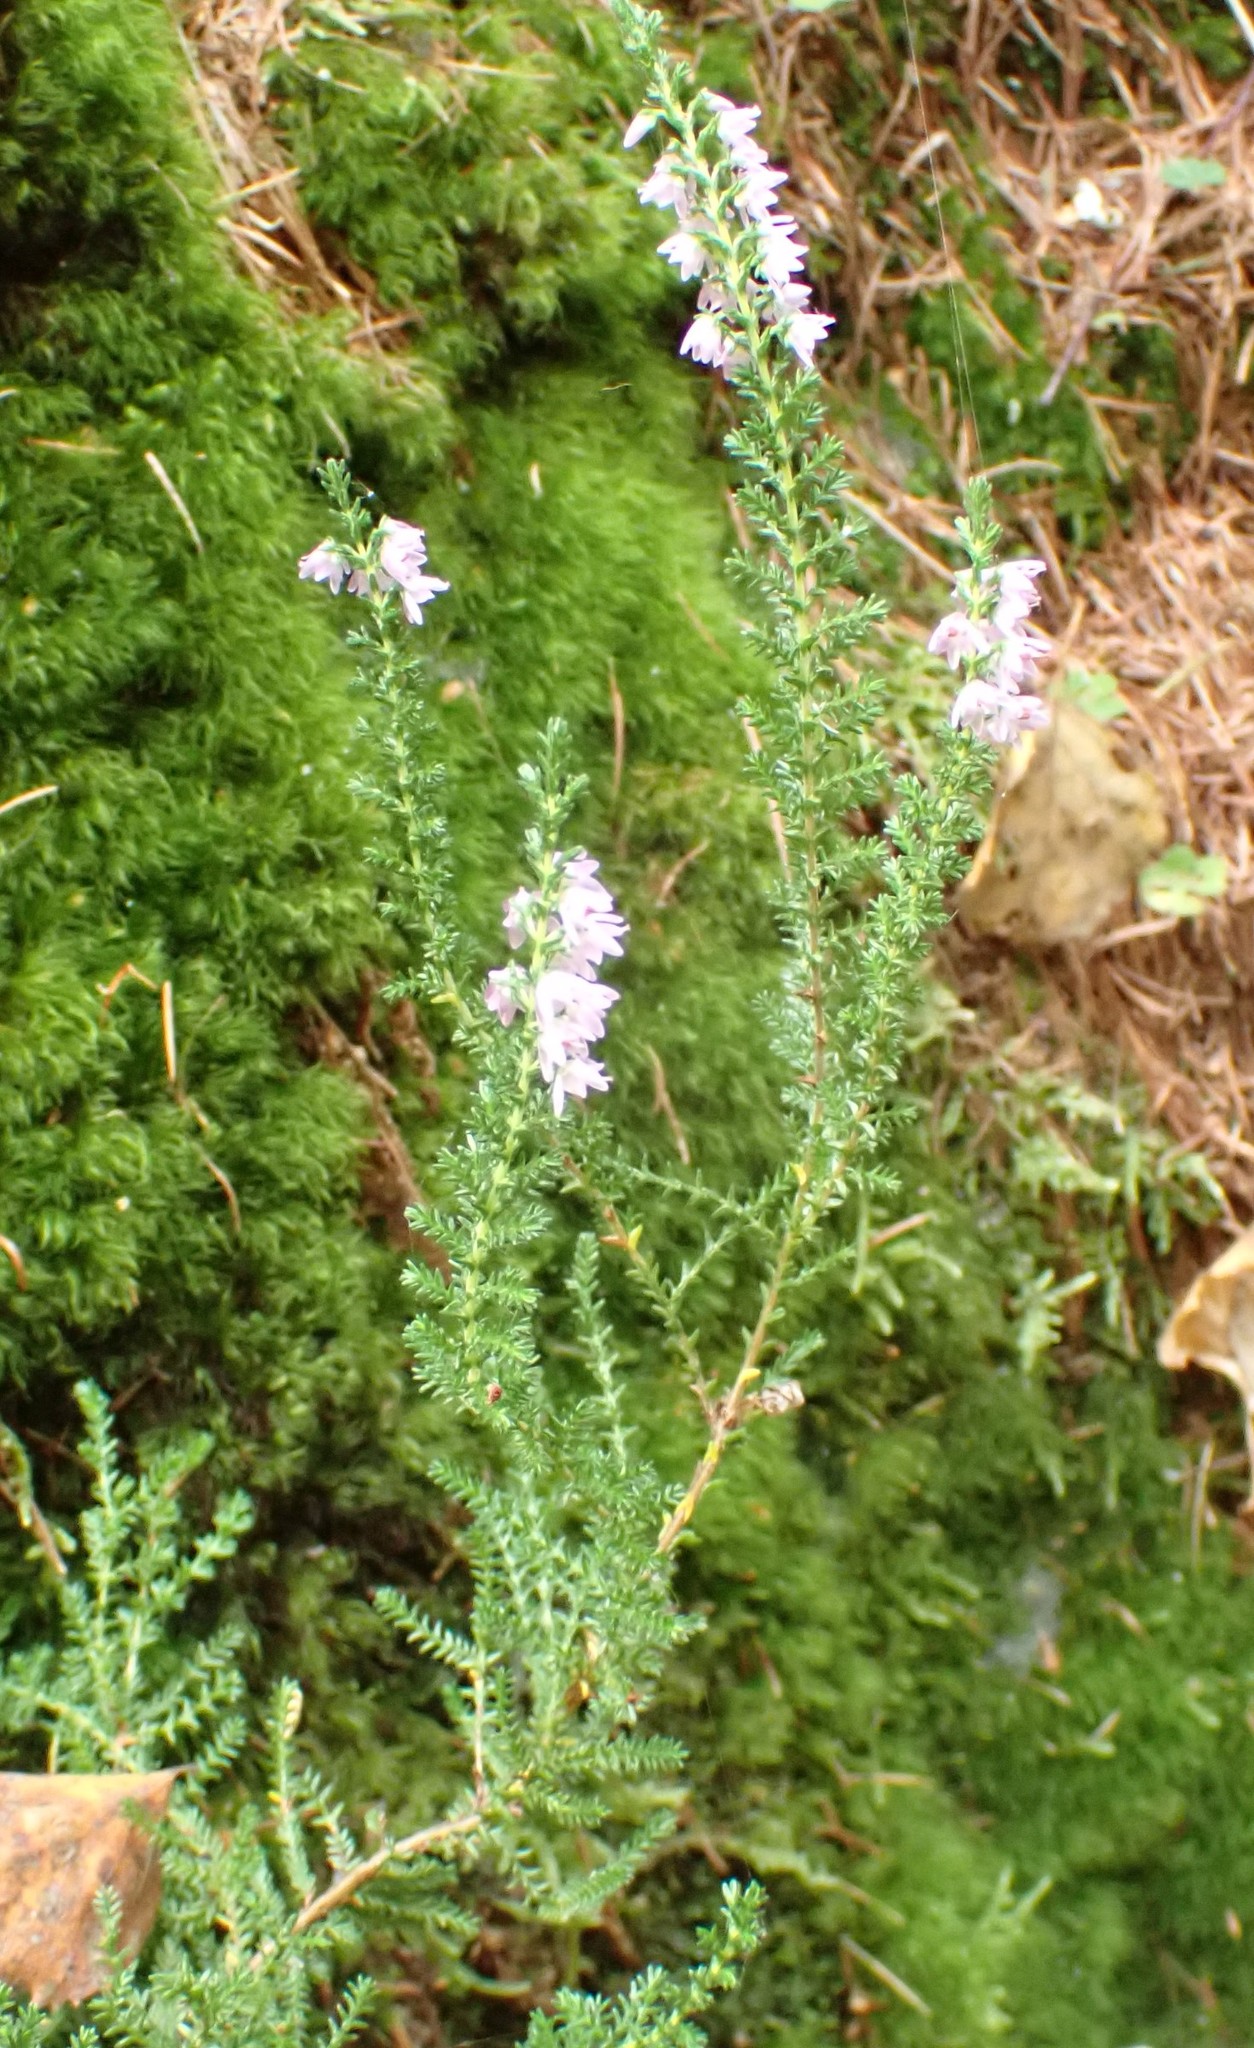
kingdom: Plantae
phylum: Tracheophyta
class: Magnoliopsida
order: Ericales
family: Ericaceae
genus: Calluna
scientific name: Calluna vulgaris
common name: Heather
